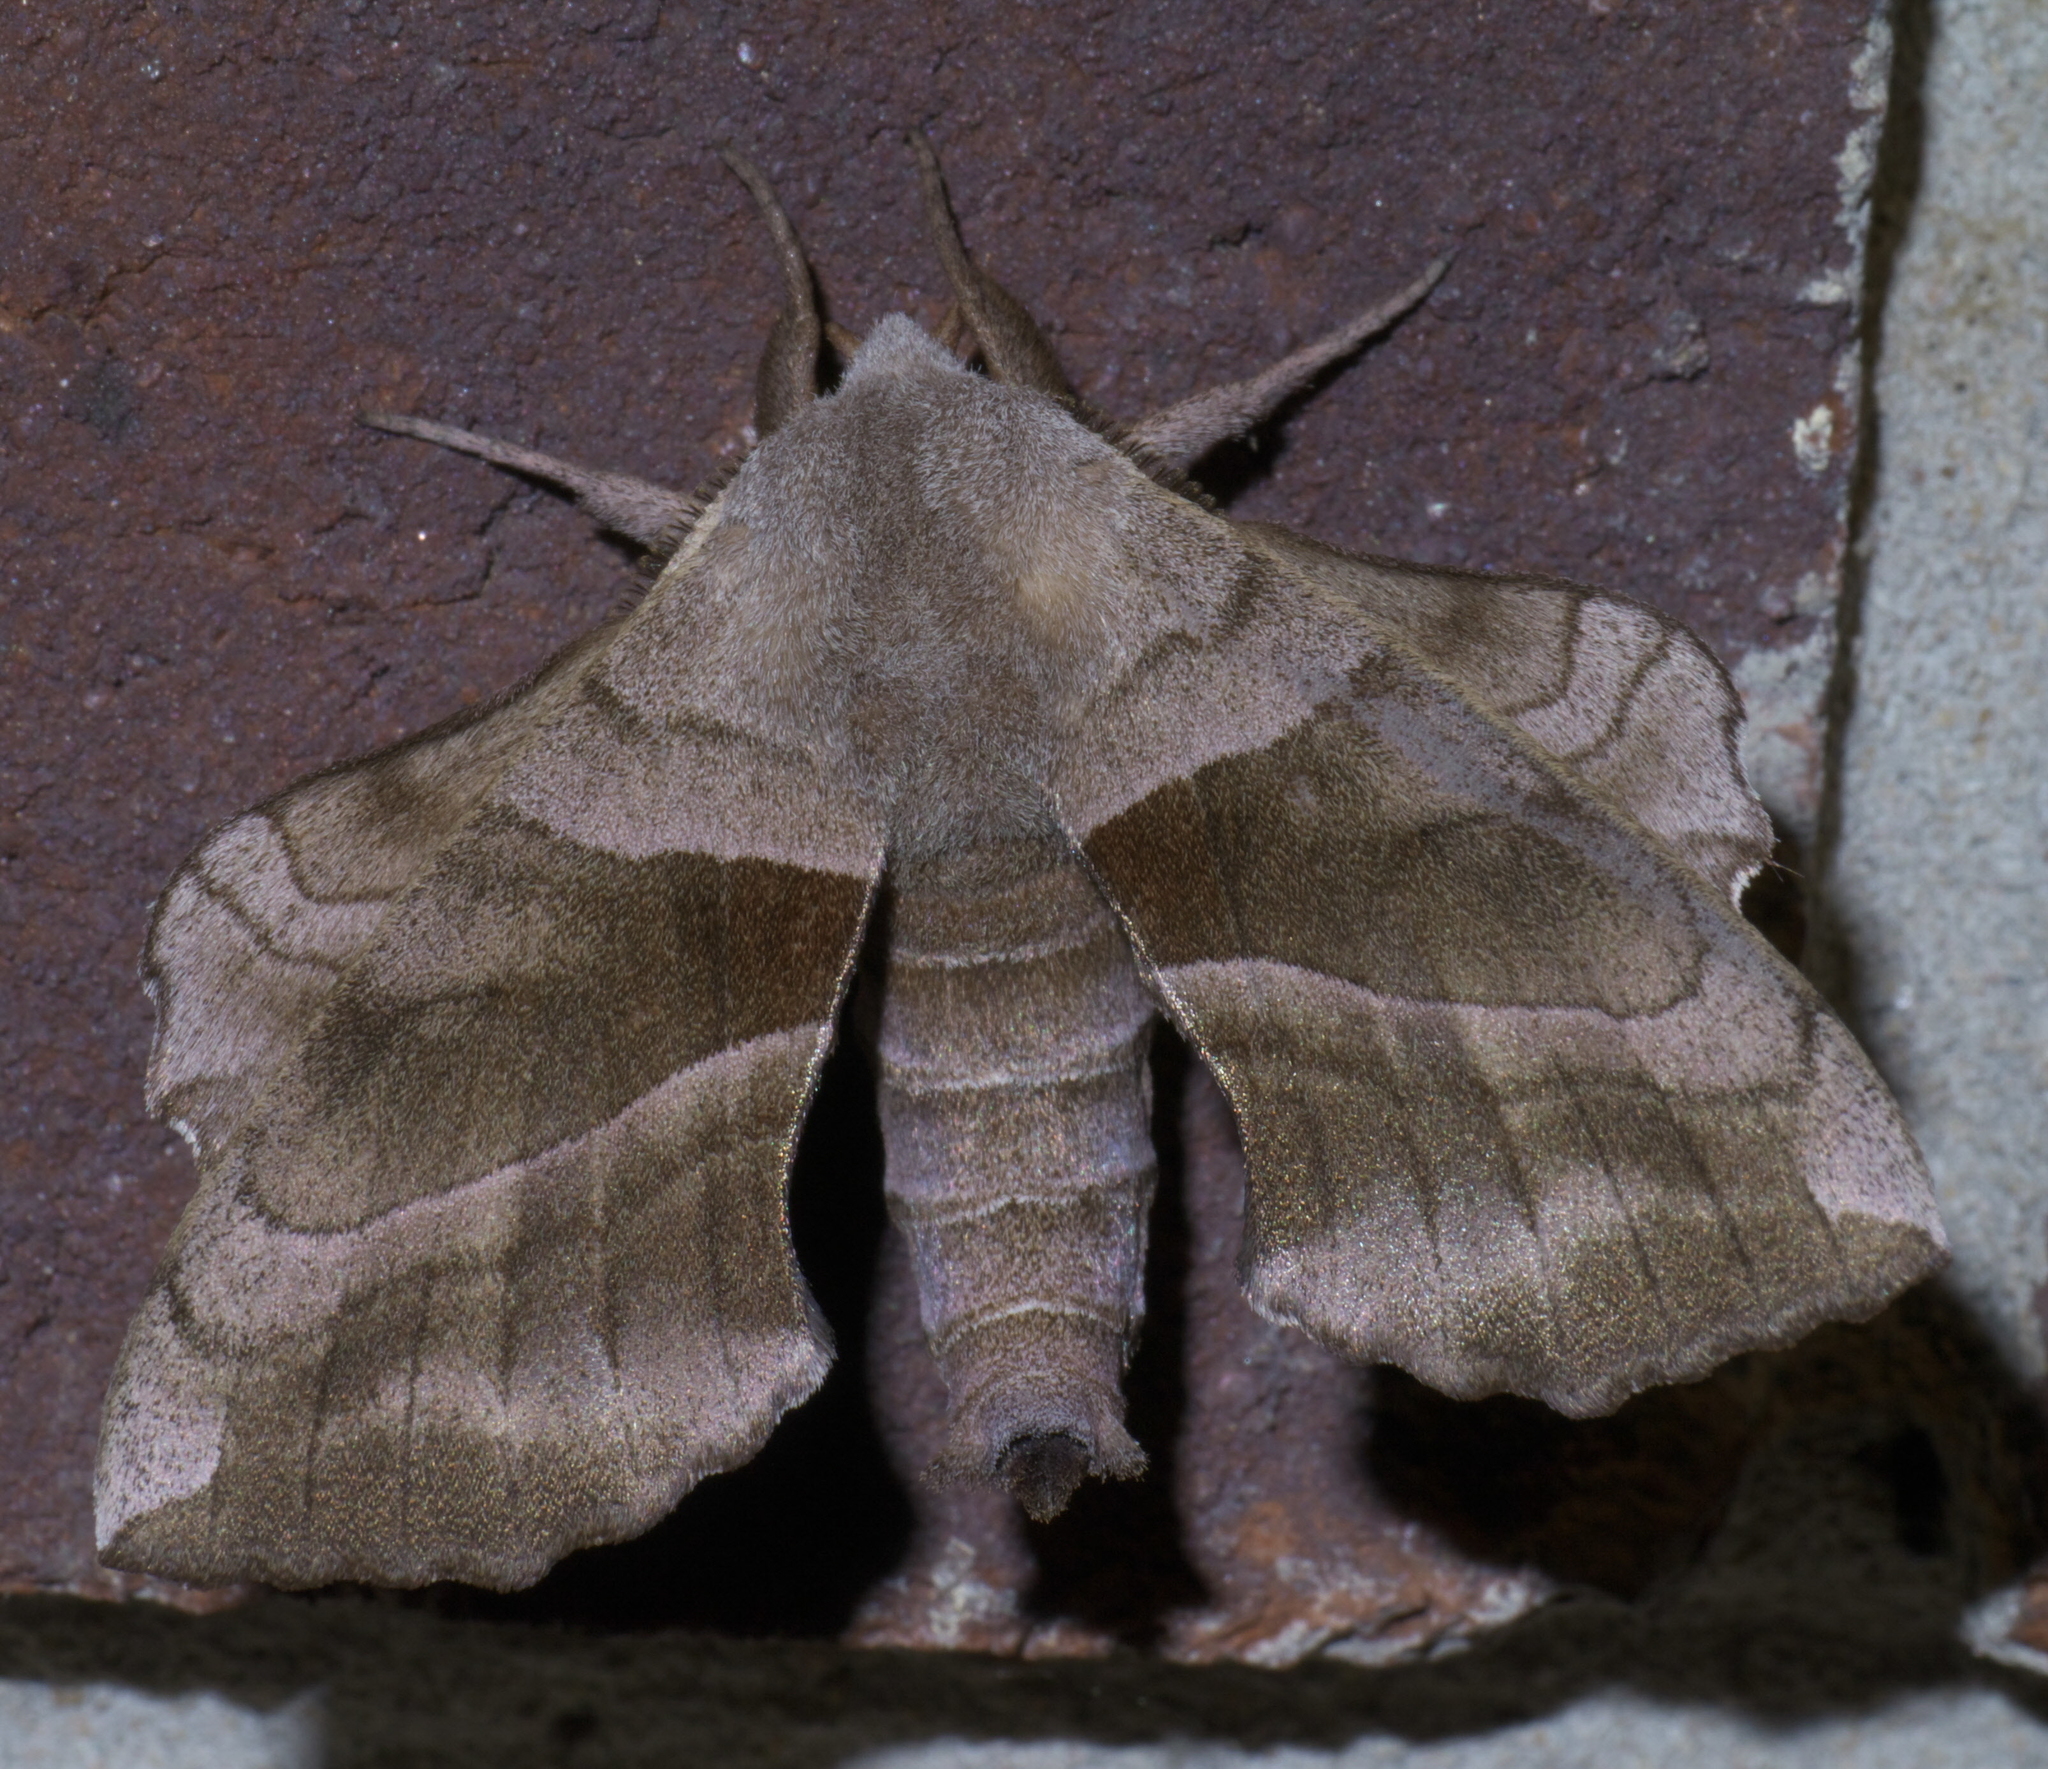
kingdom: Animalia
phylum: Arthropoda
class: Insecta
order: Lepidoptera
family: Sphingidae
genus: Amorpha
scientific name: Amorpha juglandis
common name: Walnut sphinx
